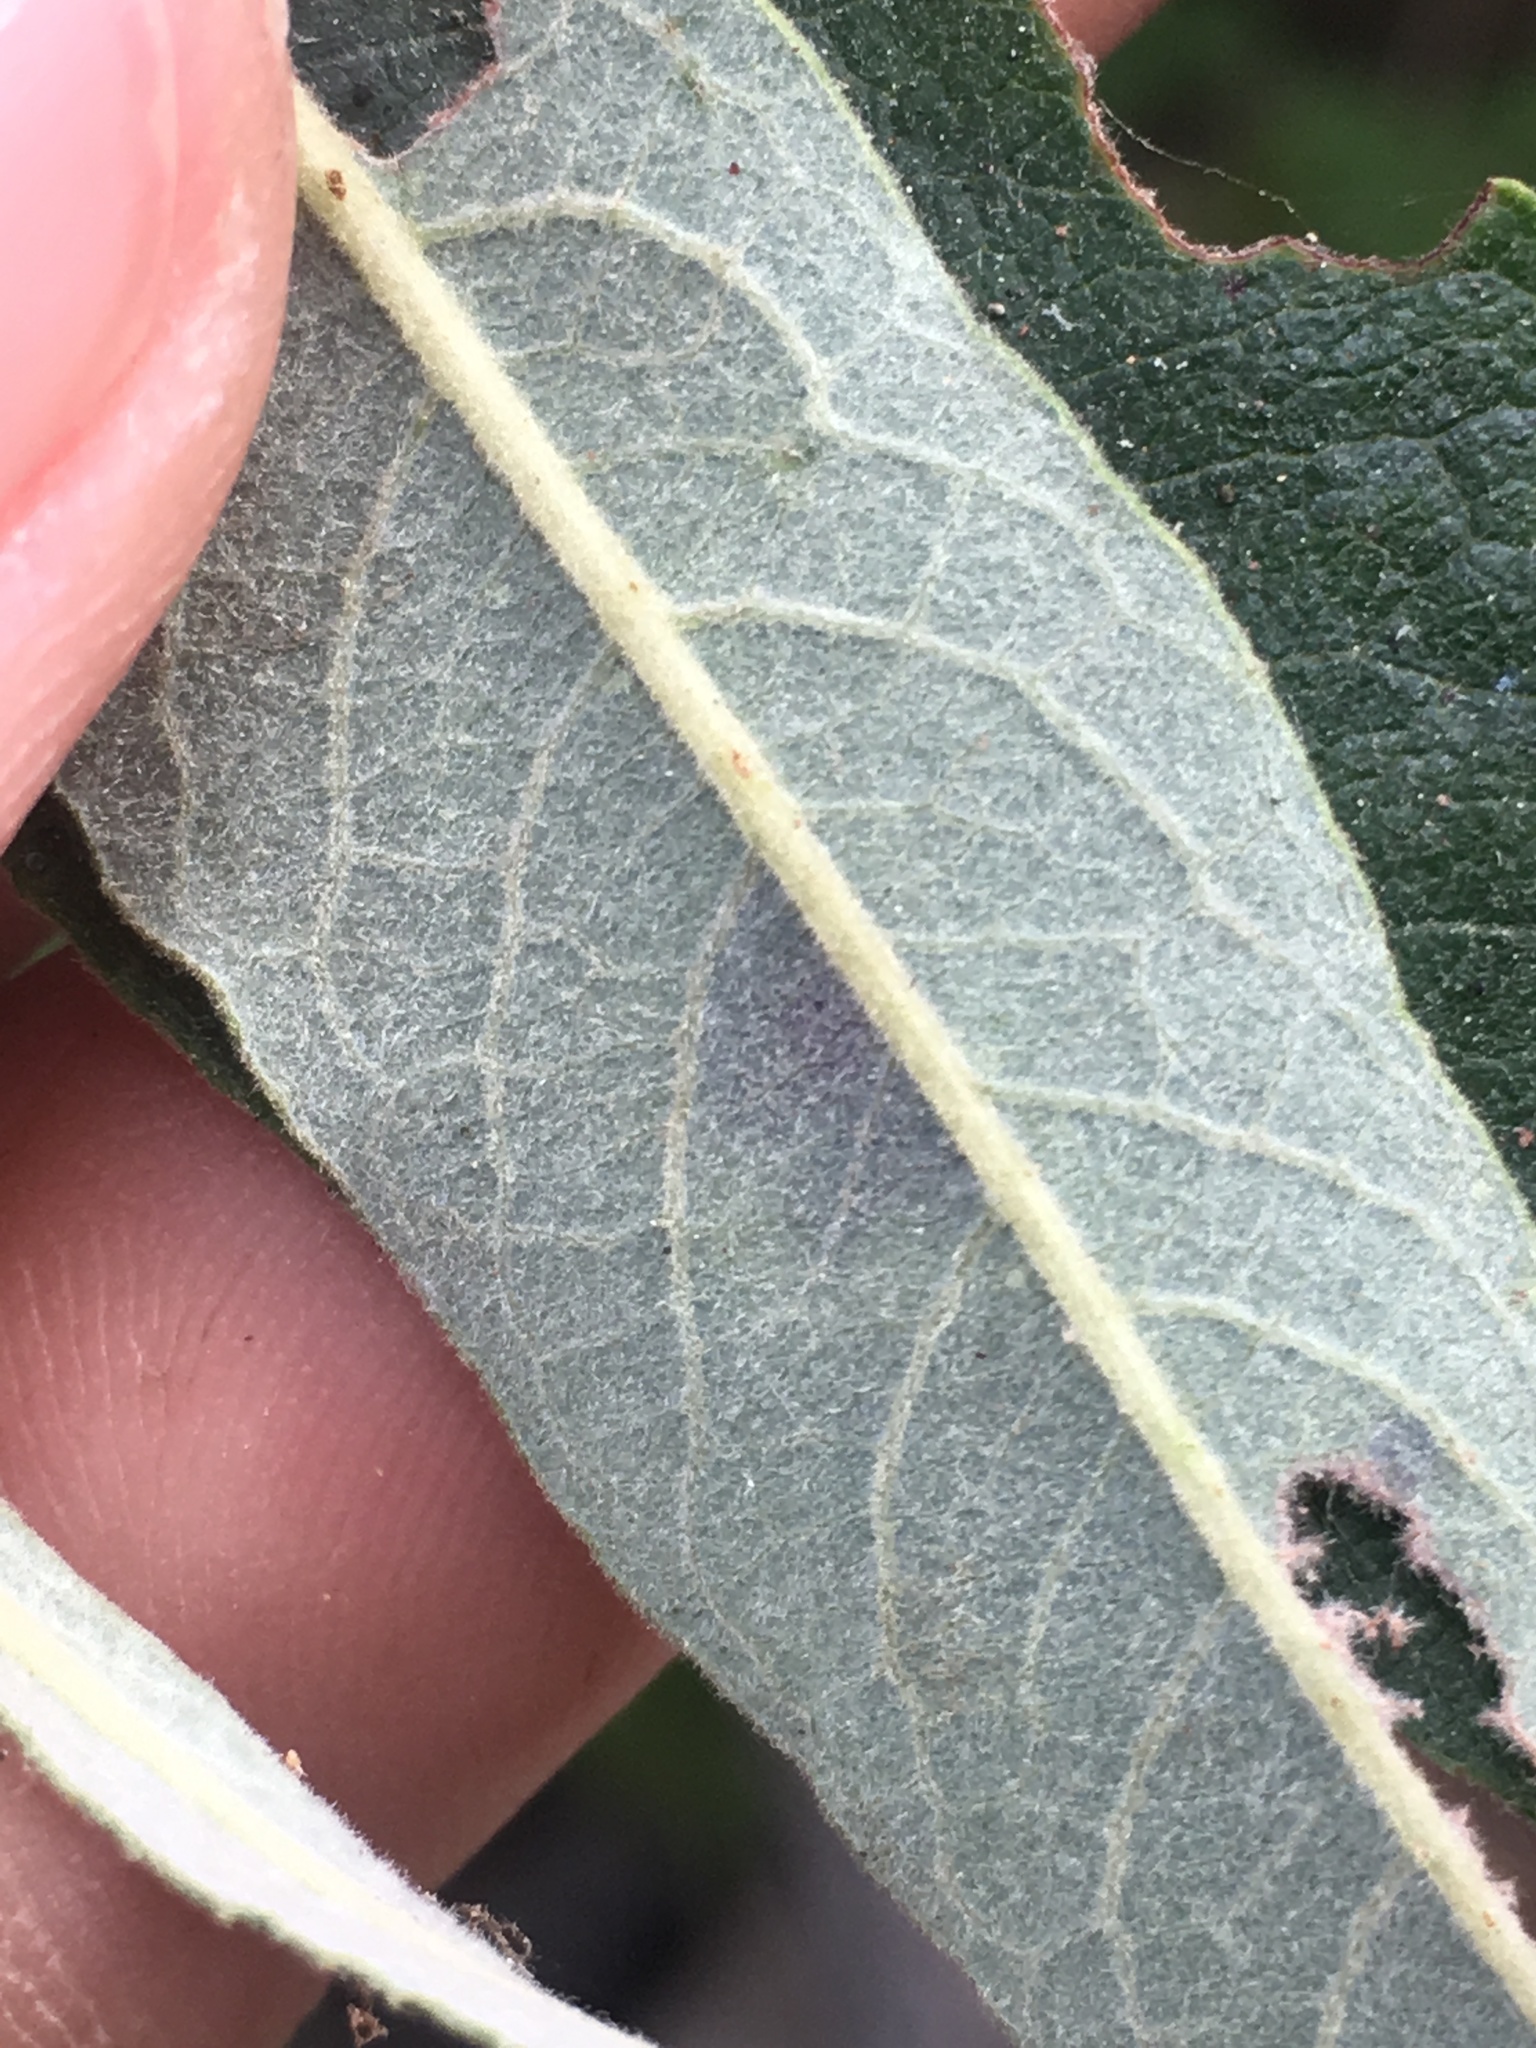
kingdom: Plantae
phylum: Tracheophyta
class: Magnoliopsida
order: Malpighiales
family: Salicaceae
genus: Salix
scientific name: Salix lasiolepis
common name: Arroyo willow
